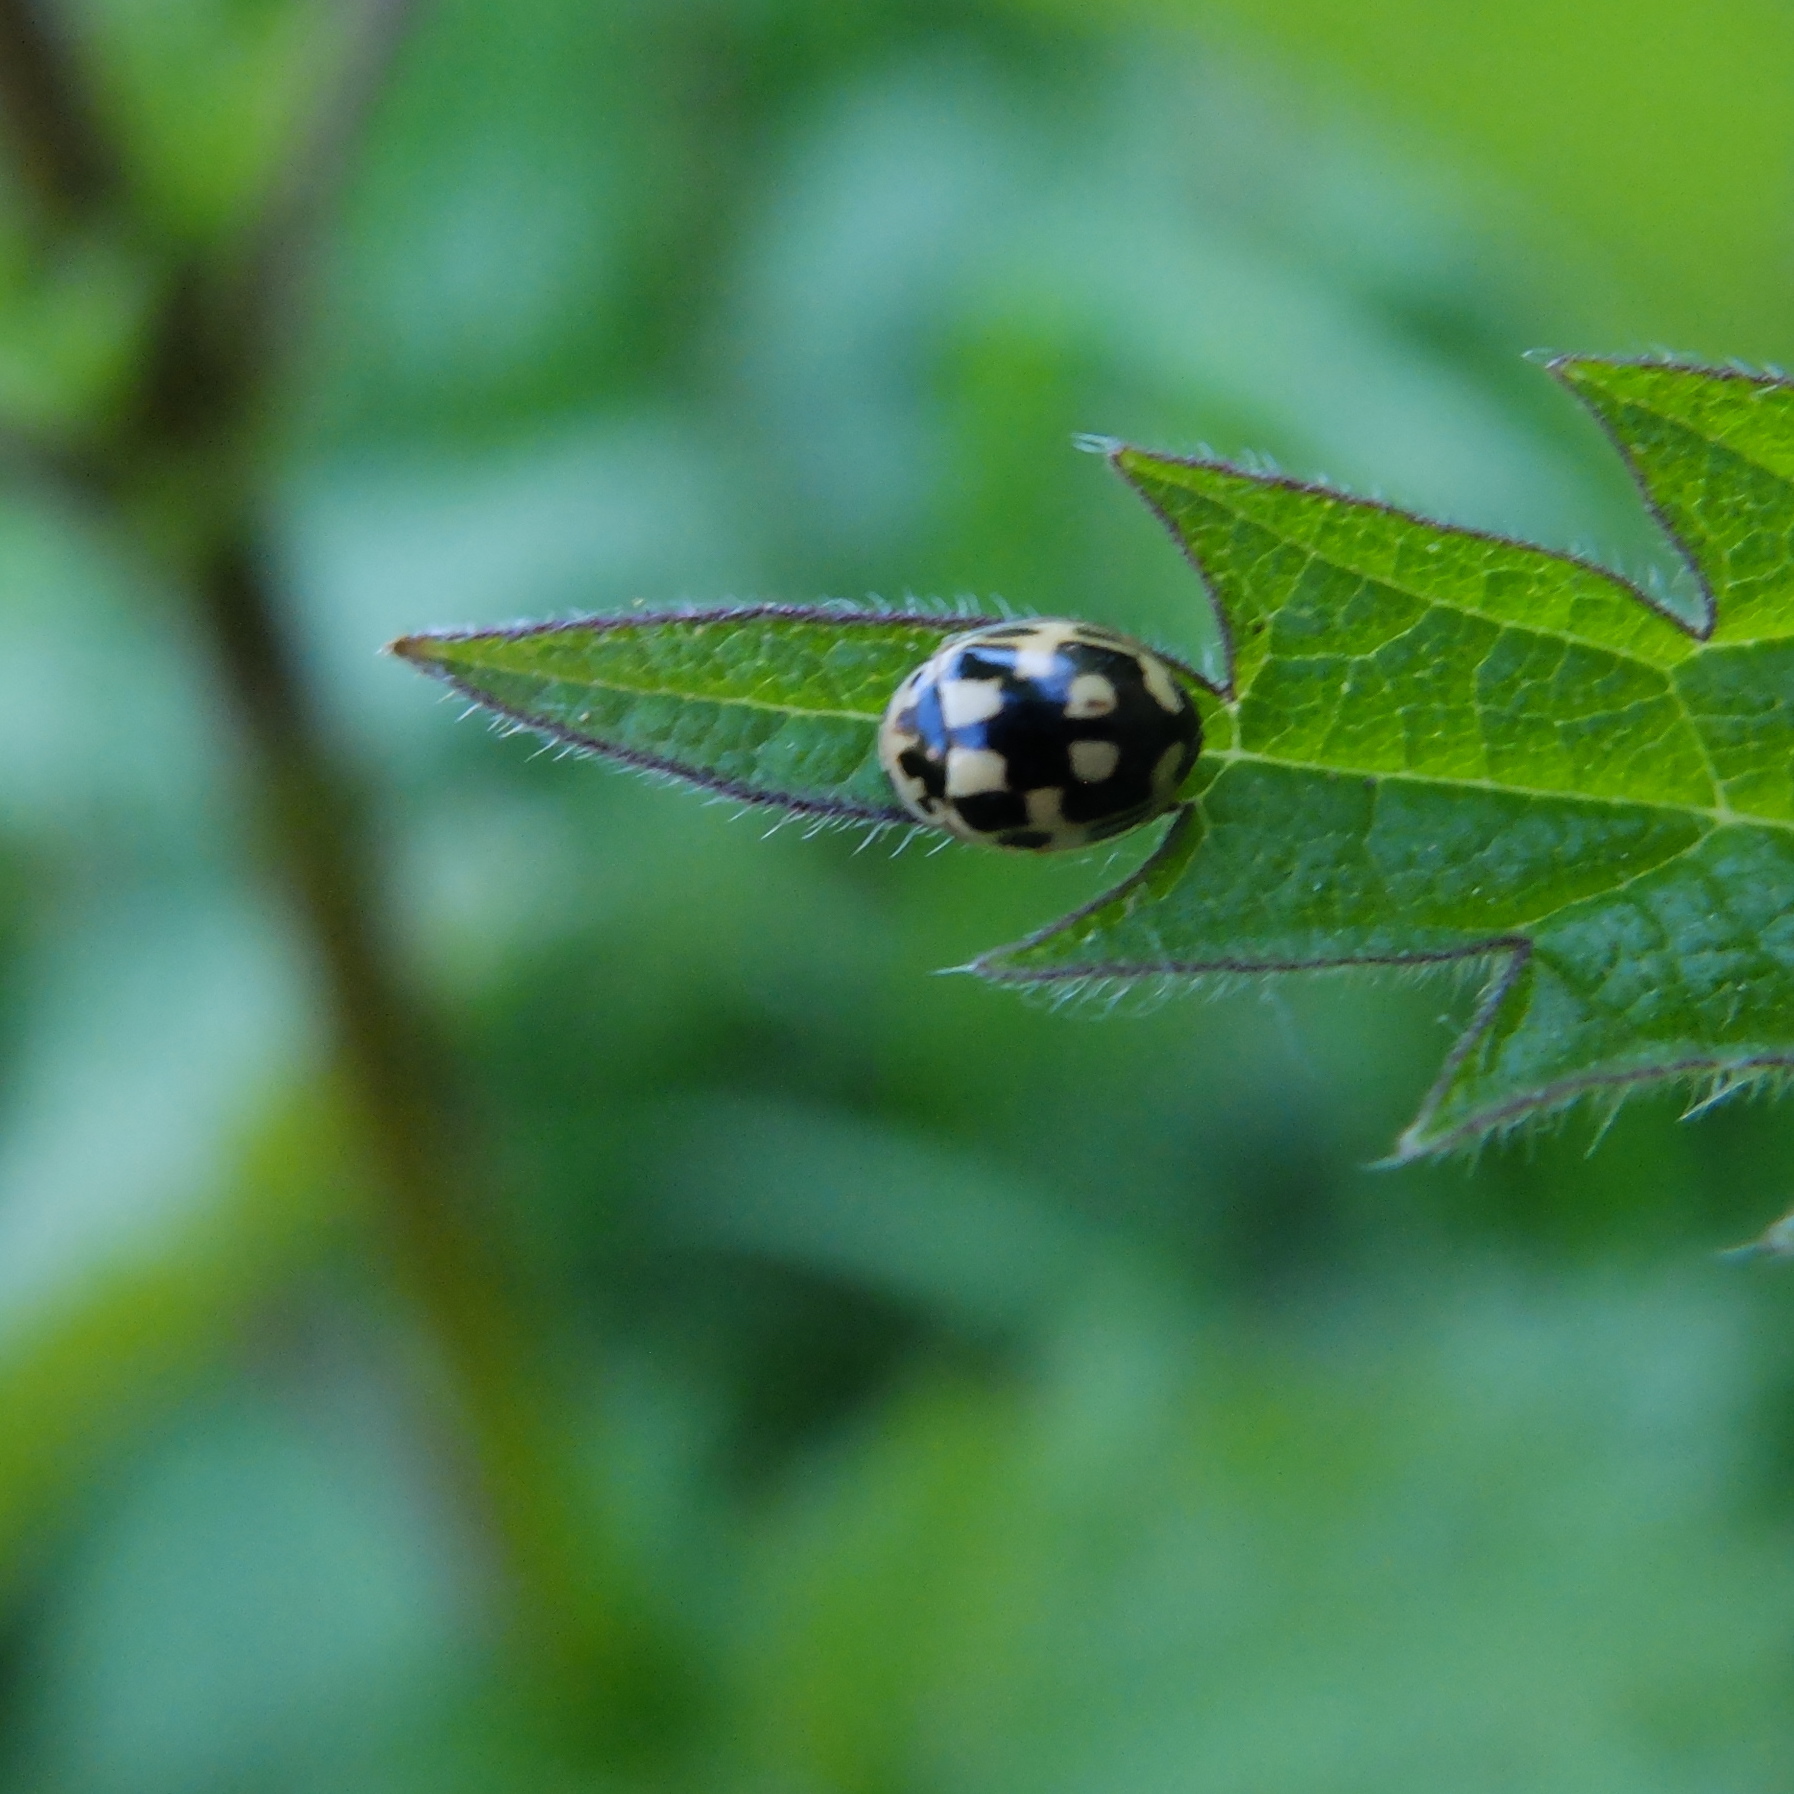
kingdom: Animalia
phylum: Arthropoda
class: Insecta
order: Coleoptera
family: Coccinellidae
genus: Propylaea
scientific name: Propylaea quatuordecimpunctata
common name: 14-spotted ladybird beetle
